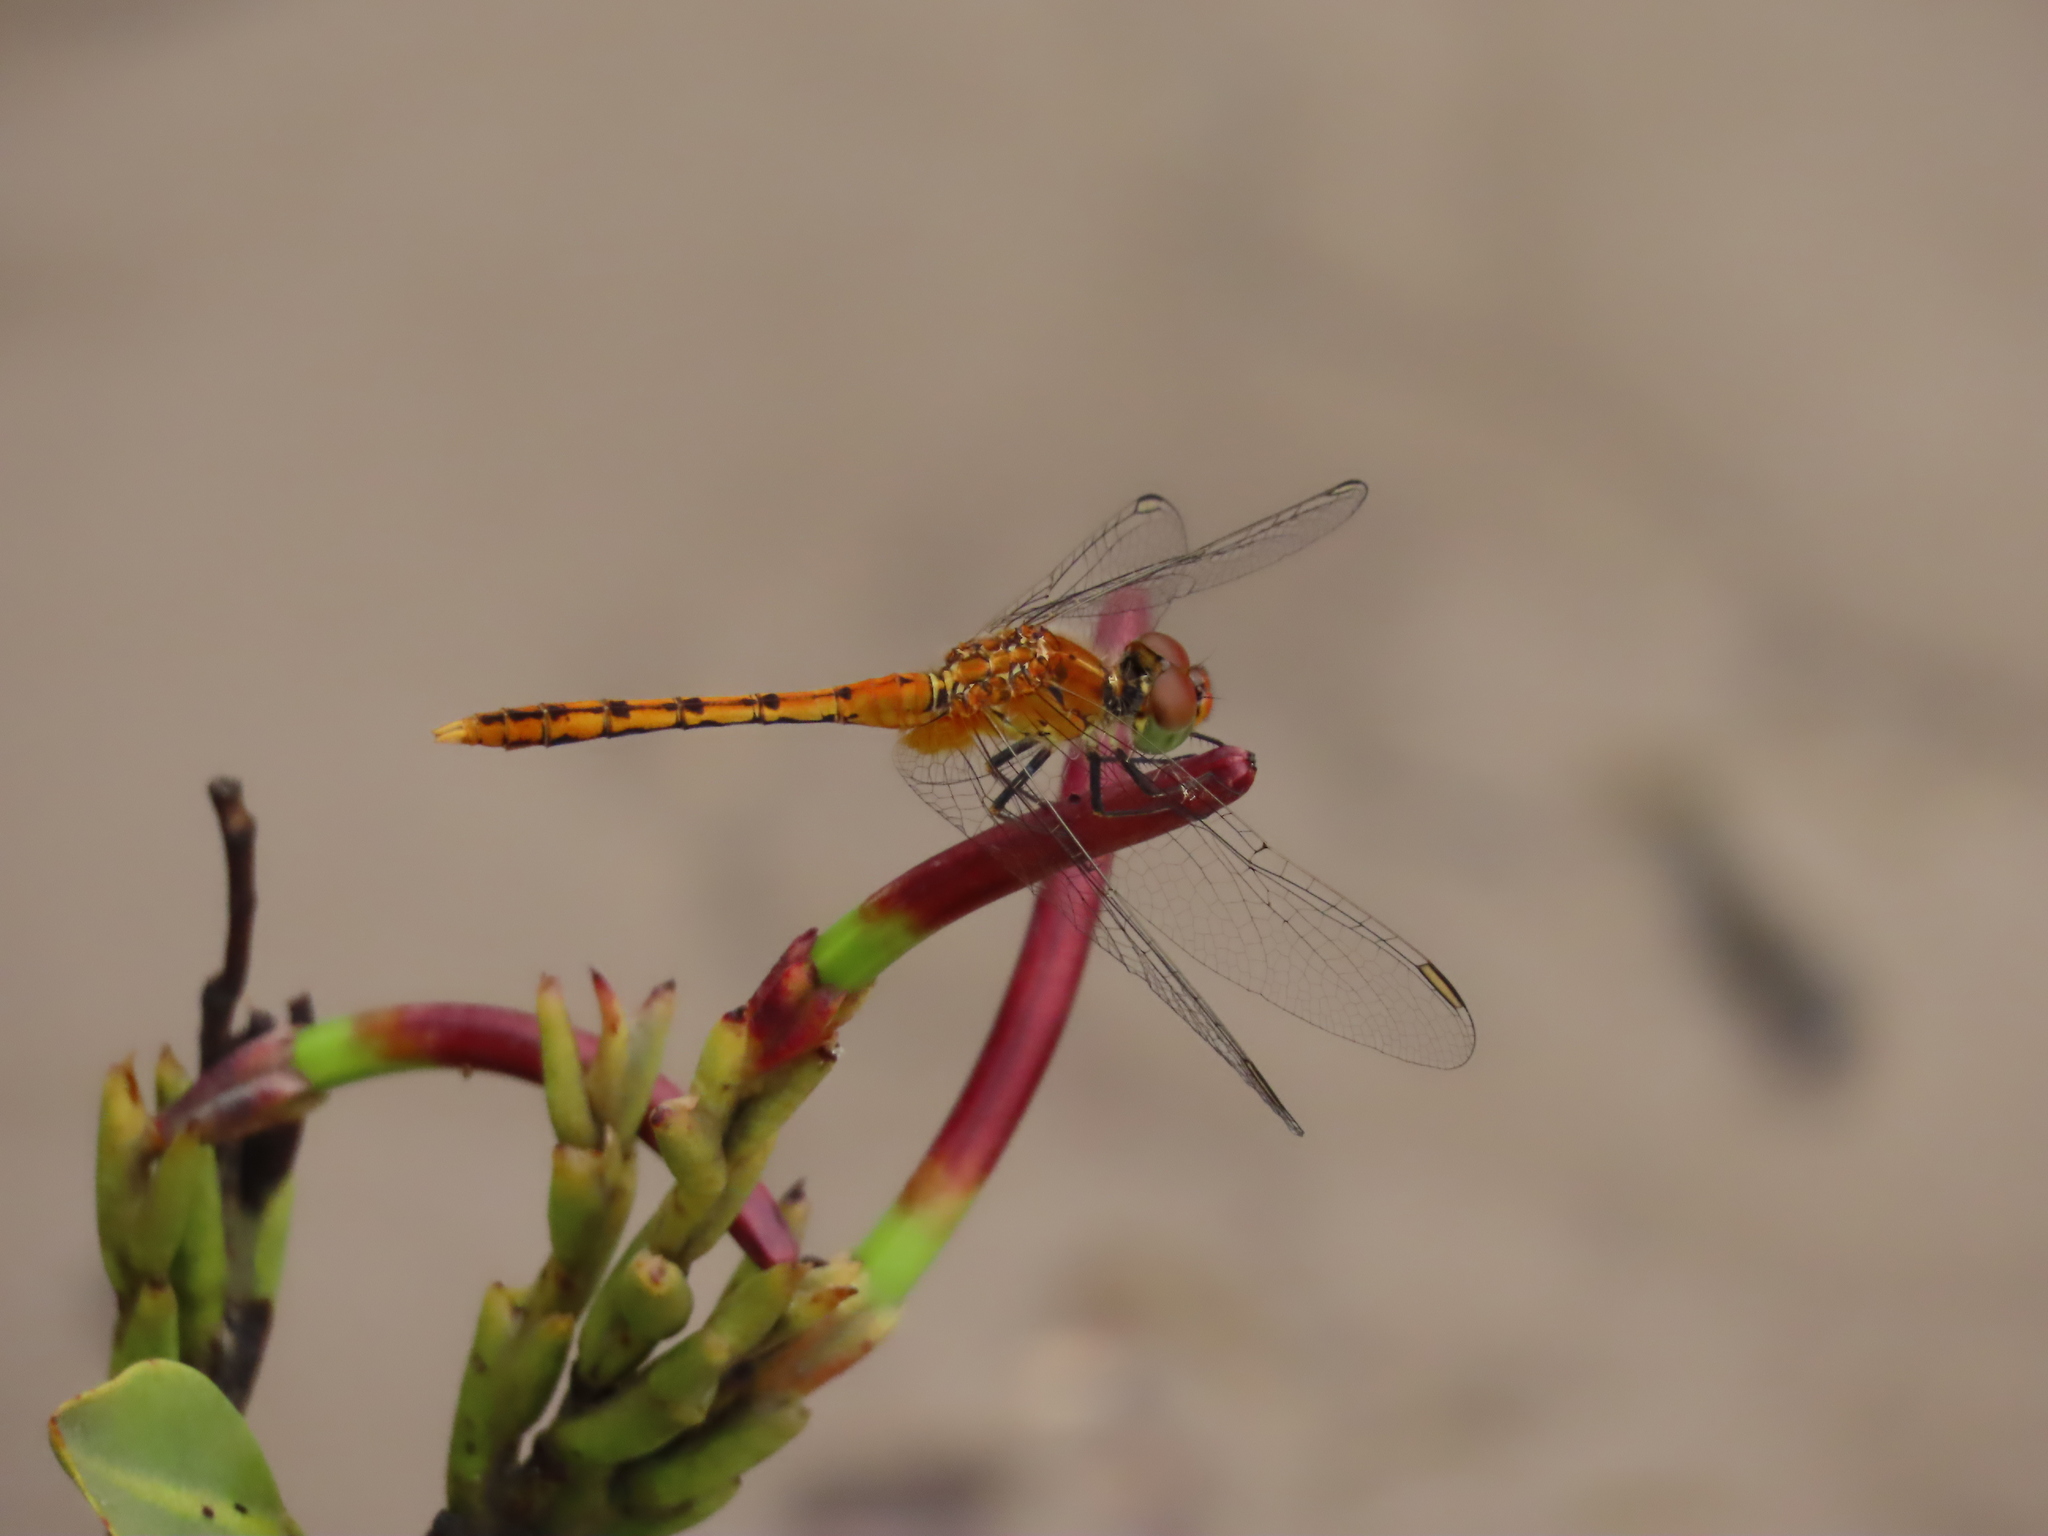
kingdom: Animalia
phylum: Arthropoda
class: Insecta
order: Odonata
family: Libellulidae
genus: Diplacodes
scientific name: Diplacodes bipunctata
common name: Red percher dragonfly
